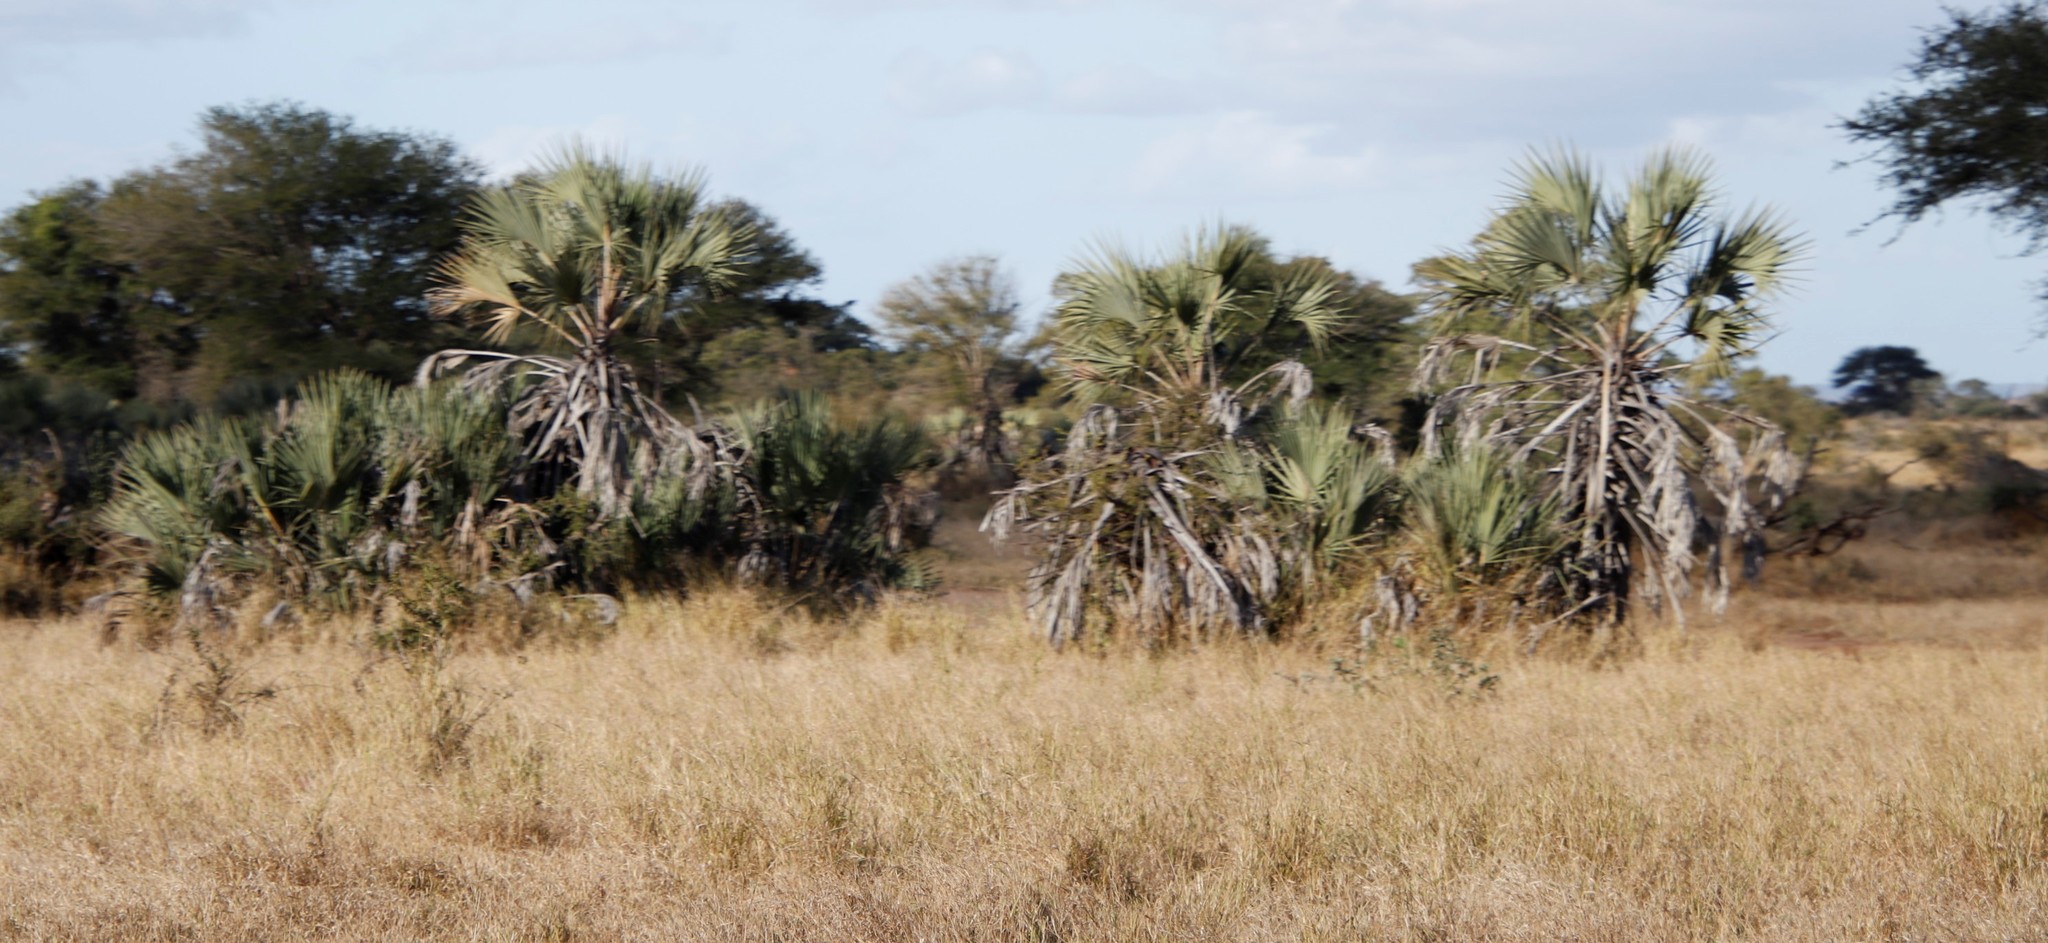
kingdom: Plantae
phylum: Tracheophyta
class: Liliopsida
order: Arecales
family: Arecaceae
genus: Hyphaene
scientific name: Hyphaene coriacea
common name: Ilala palm
